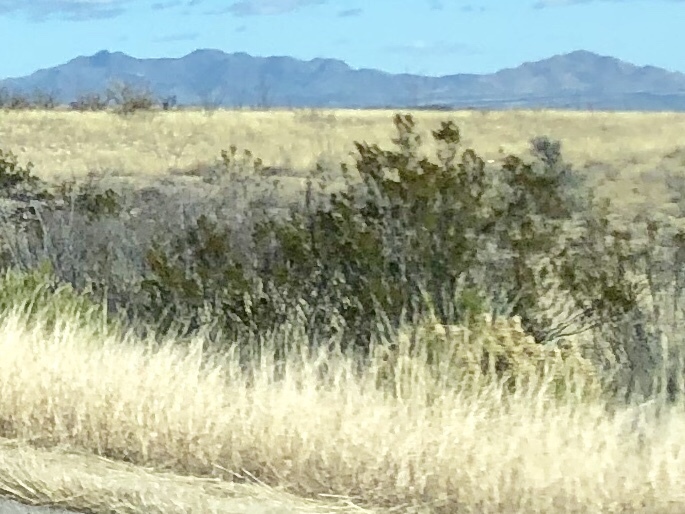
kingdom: Plantae
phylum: Tracheophyta
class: Magnoliopsida
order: Zygophyllales
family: Zygophyllaceae
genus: Larrea
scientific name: Larrea tridentata
